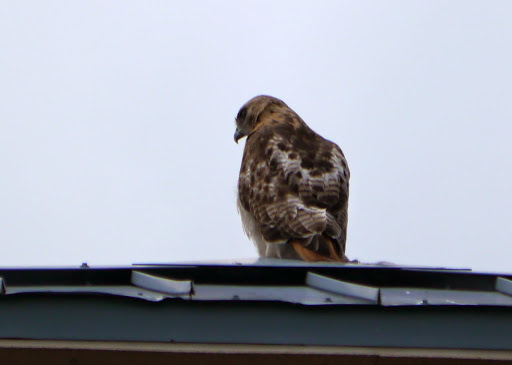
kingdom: Animalia
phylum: Chordata
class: Aves
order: Accipitriformes
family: Accipitridae
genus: Buteo
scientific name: Buteo jamaicensis
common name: Red-tailed hawk
